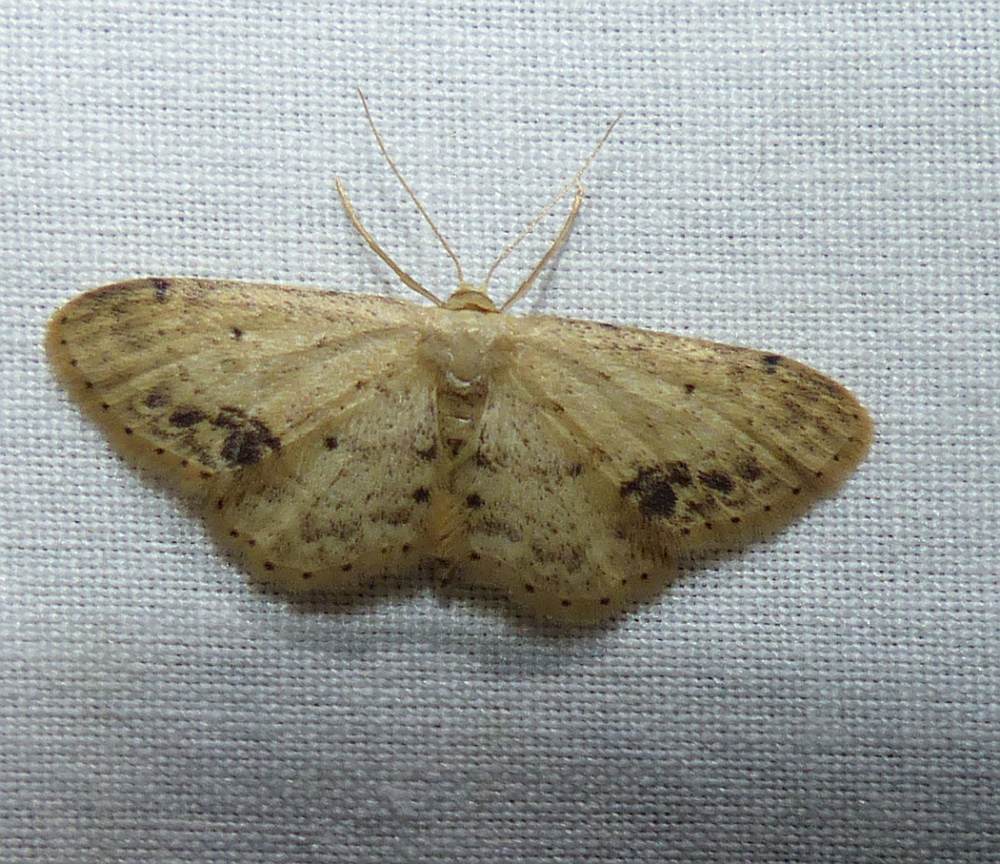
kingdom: Animalia
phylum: Arthropoda
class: Insecta
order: Lepidoptera
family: Geometridae
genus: Idaea
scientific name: Idaea dimidiata
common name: Single-dotted wave
